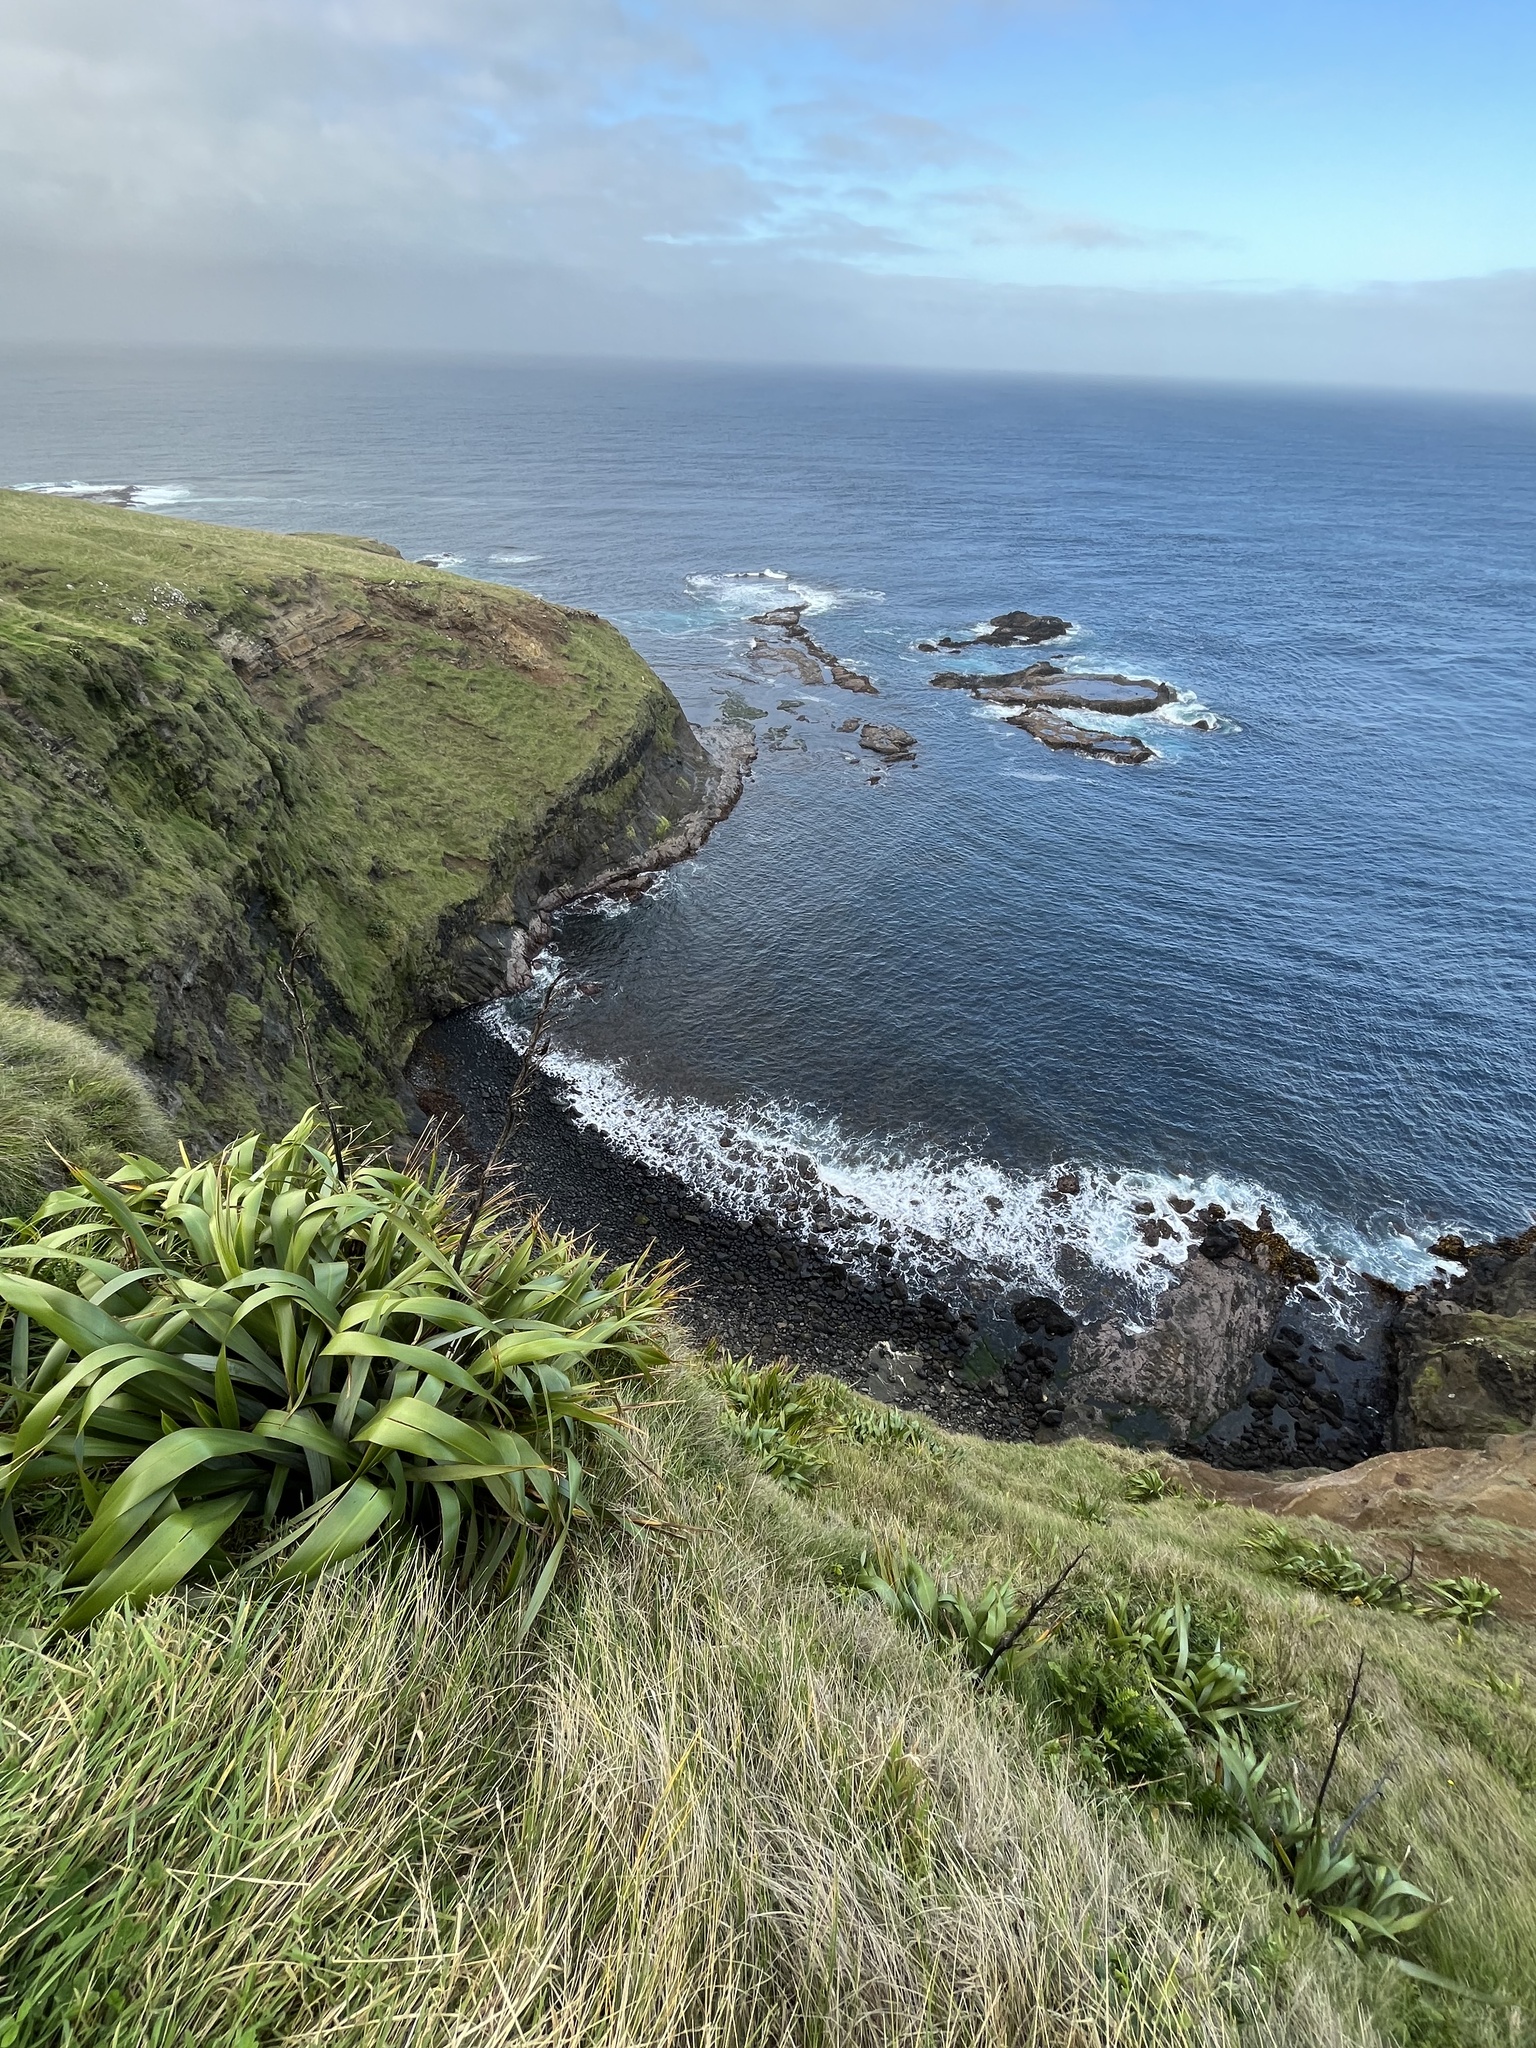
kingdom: Plantae
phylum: Tracheophyta
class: Liliopsida
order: Asparagales
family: Asphodelaceae
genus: Phormium
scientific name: Phormium tenax
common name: New zealand flax
